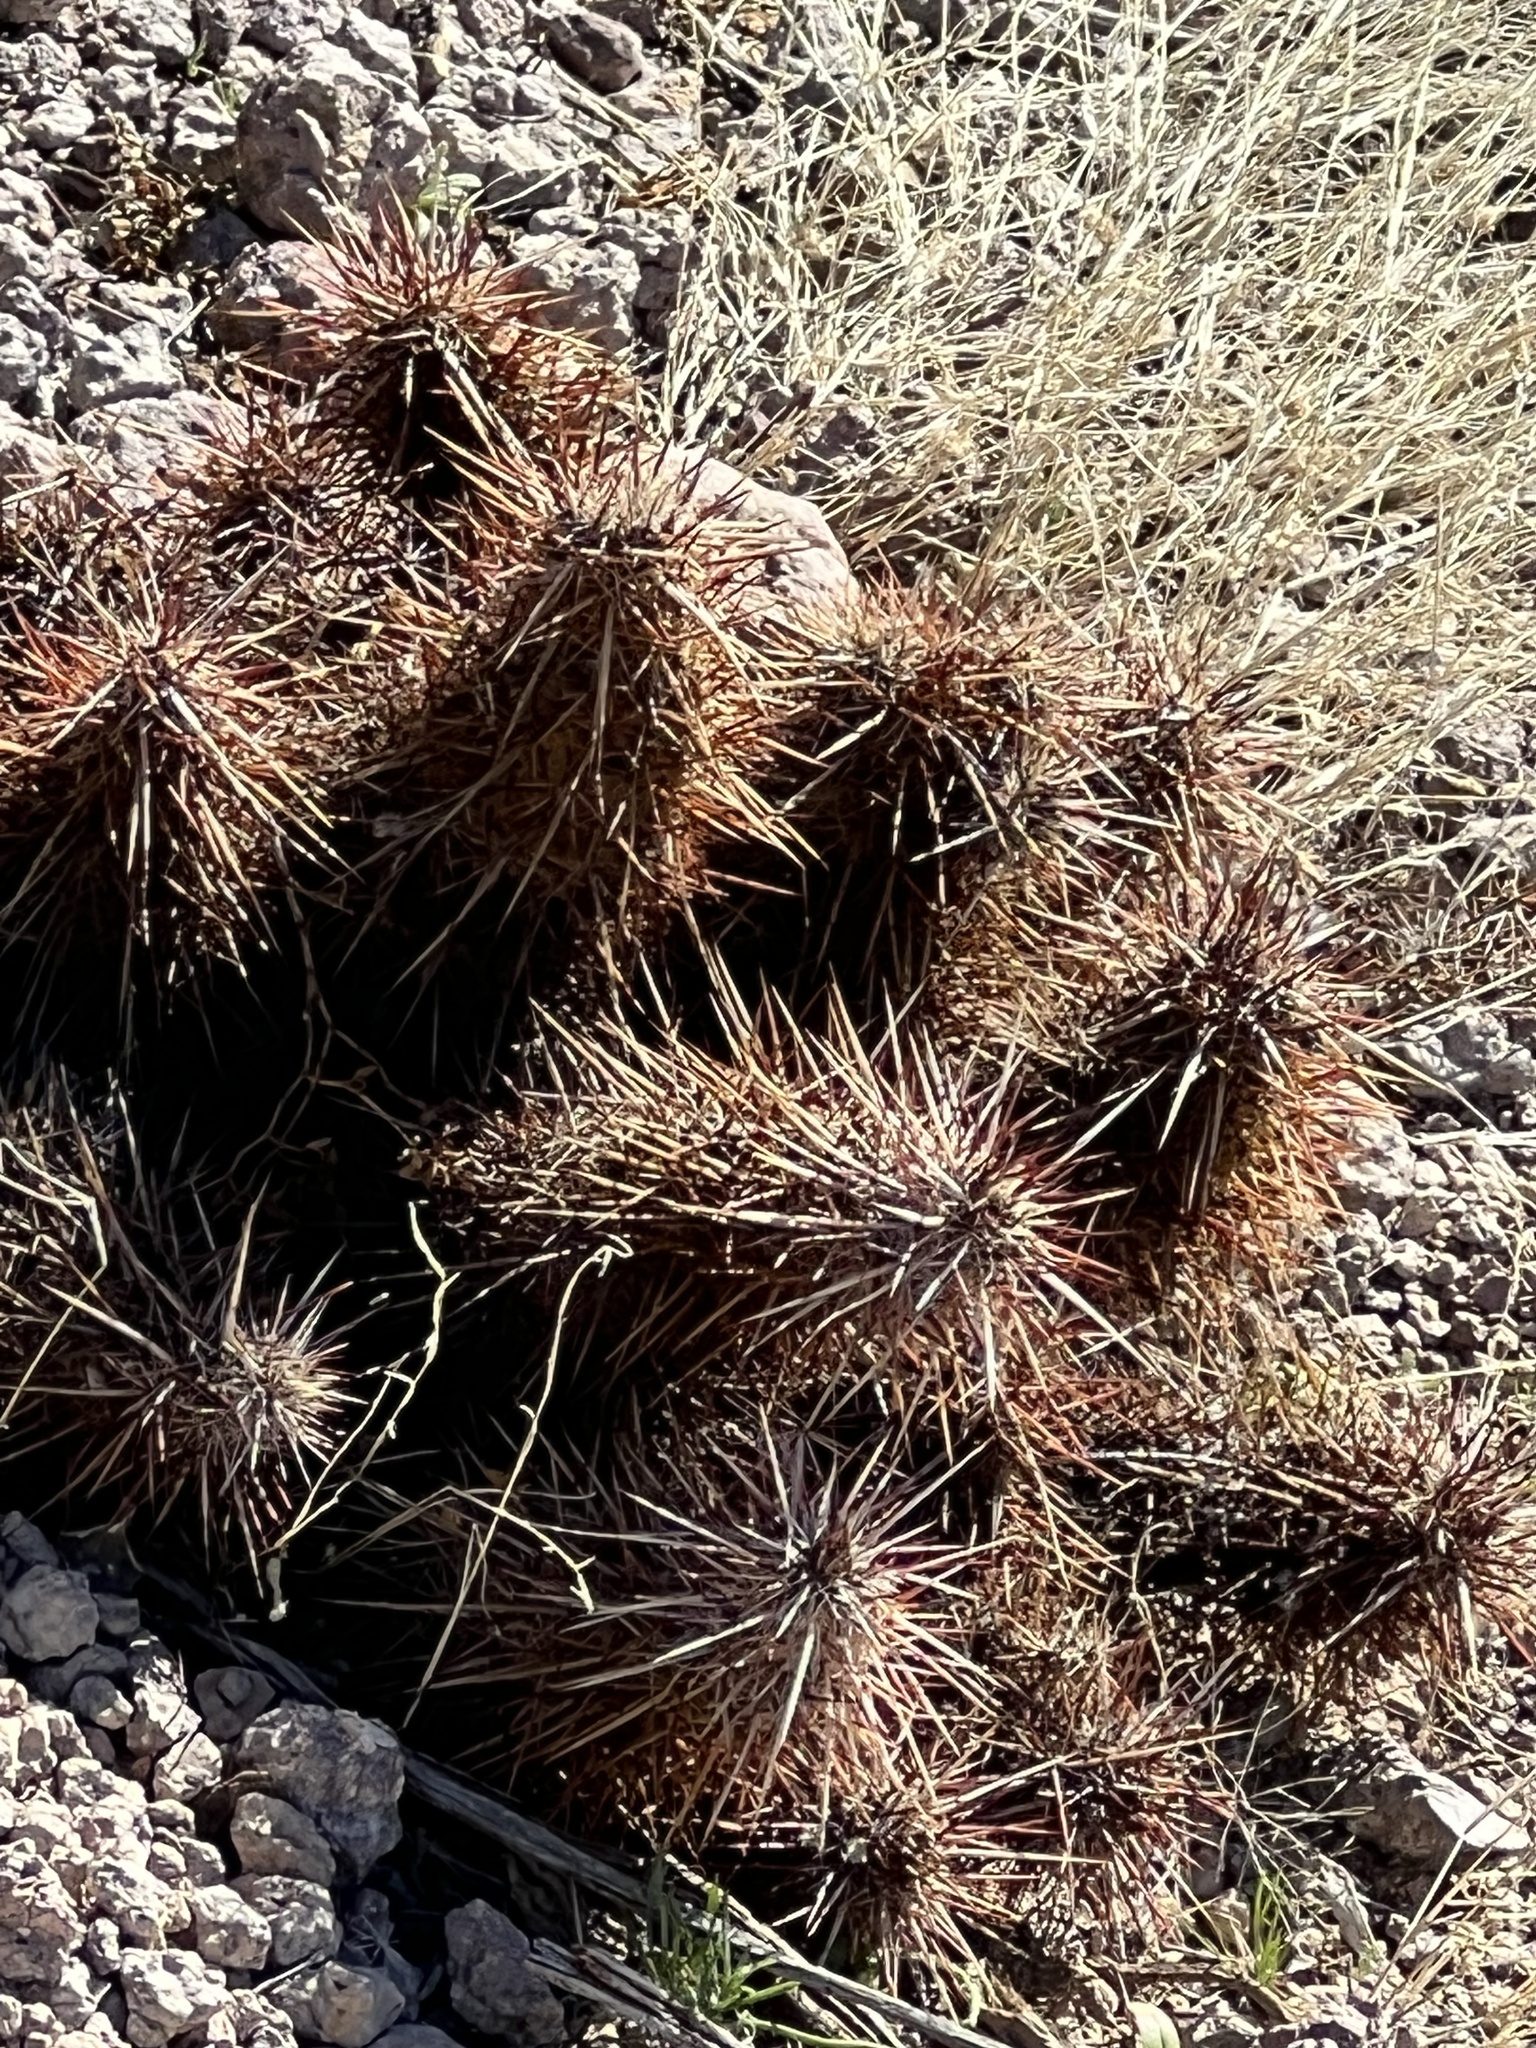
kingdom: Plantae
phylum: Tracheophyta
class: Magnoliopsida
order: Caryophyllales
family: Cactaceae
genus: Echinocereus
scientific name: Echinocereus engelmannii
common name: Engelmann's hedgehog cactus
